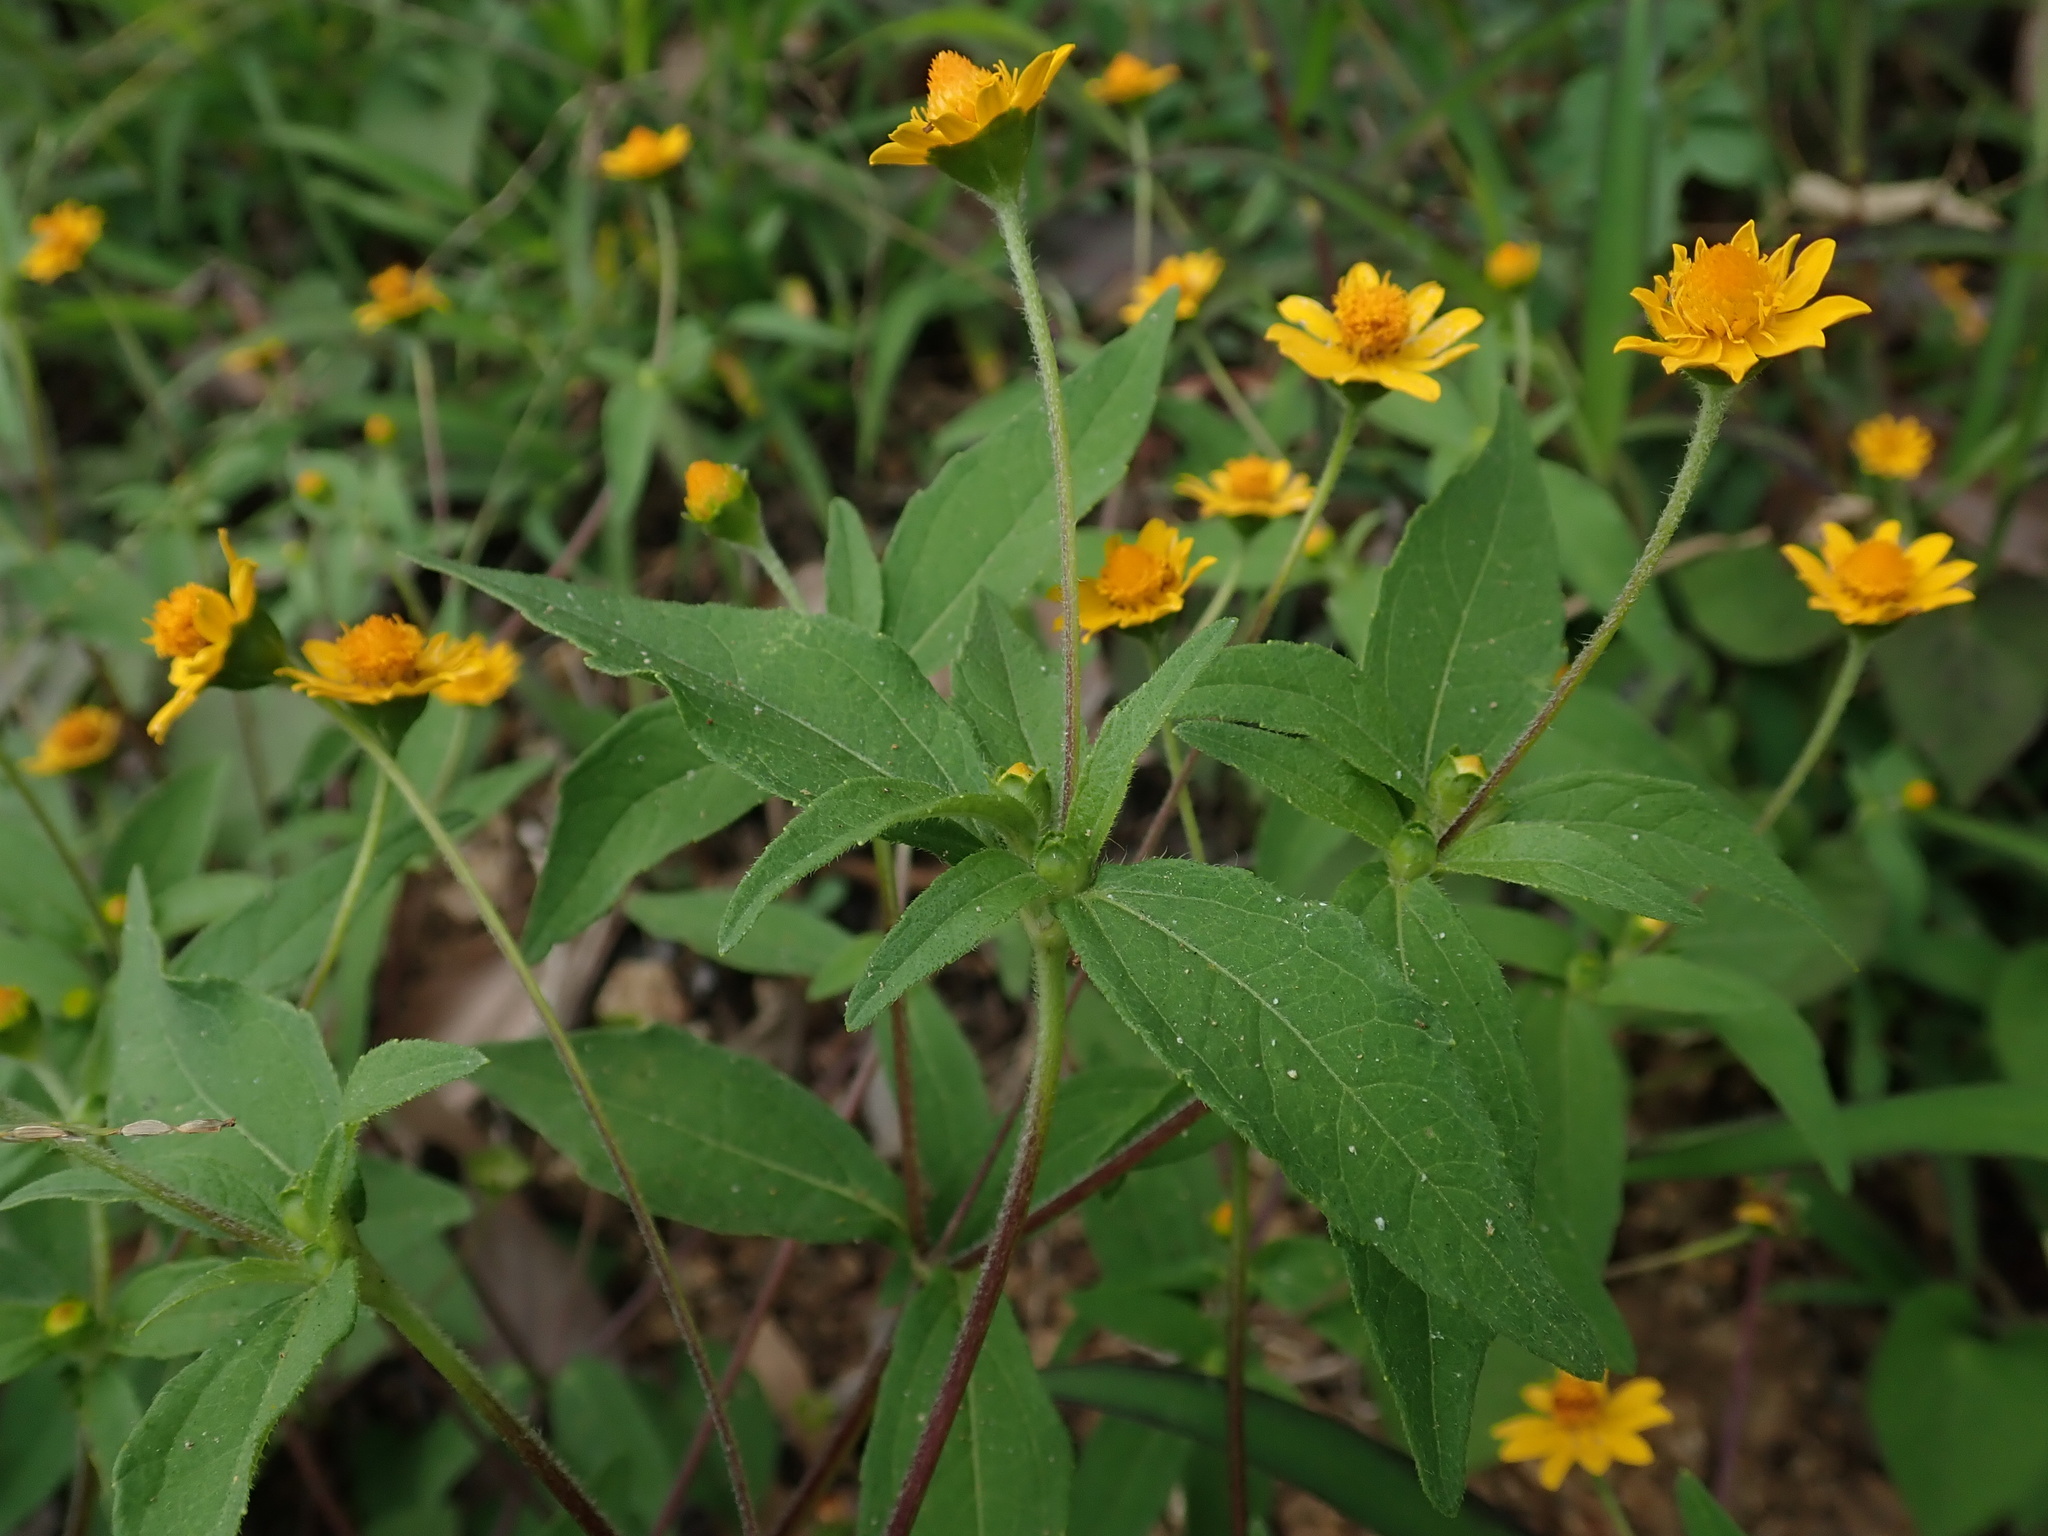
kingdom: Plantae
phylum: Tracheophyta
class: Magnoliopsida
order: Asterales
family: Asteraceae
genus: Melampodium
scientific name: Melampodium divaricatum
